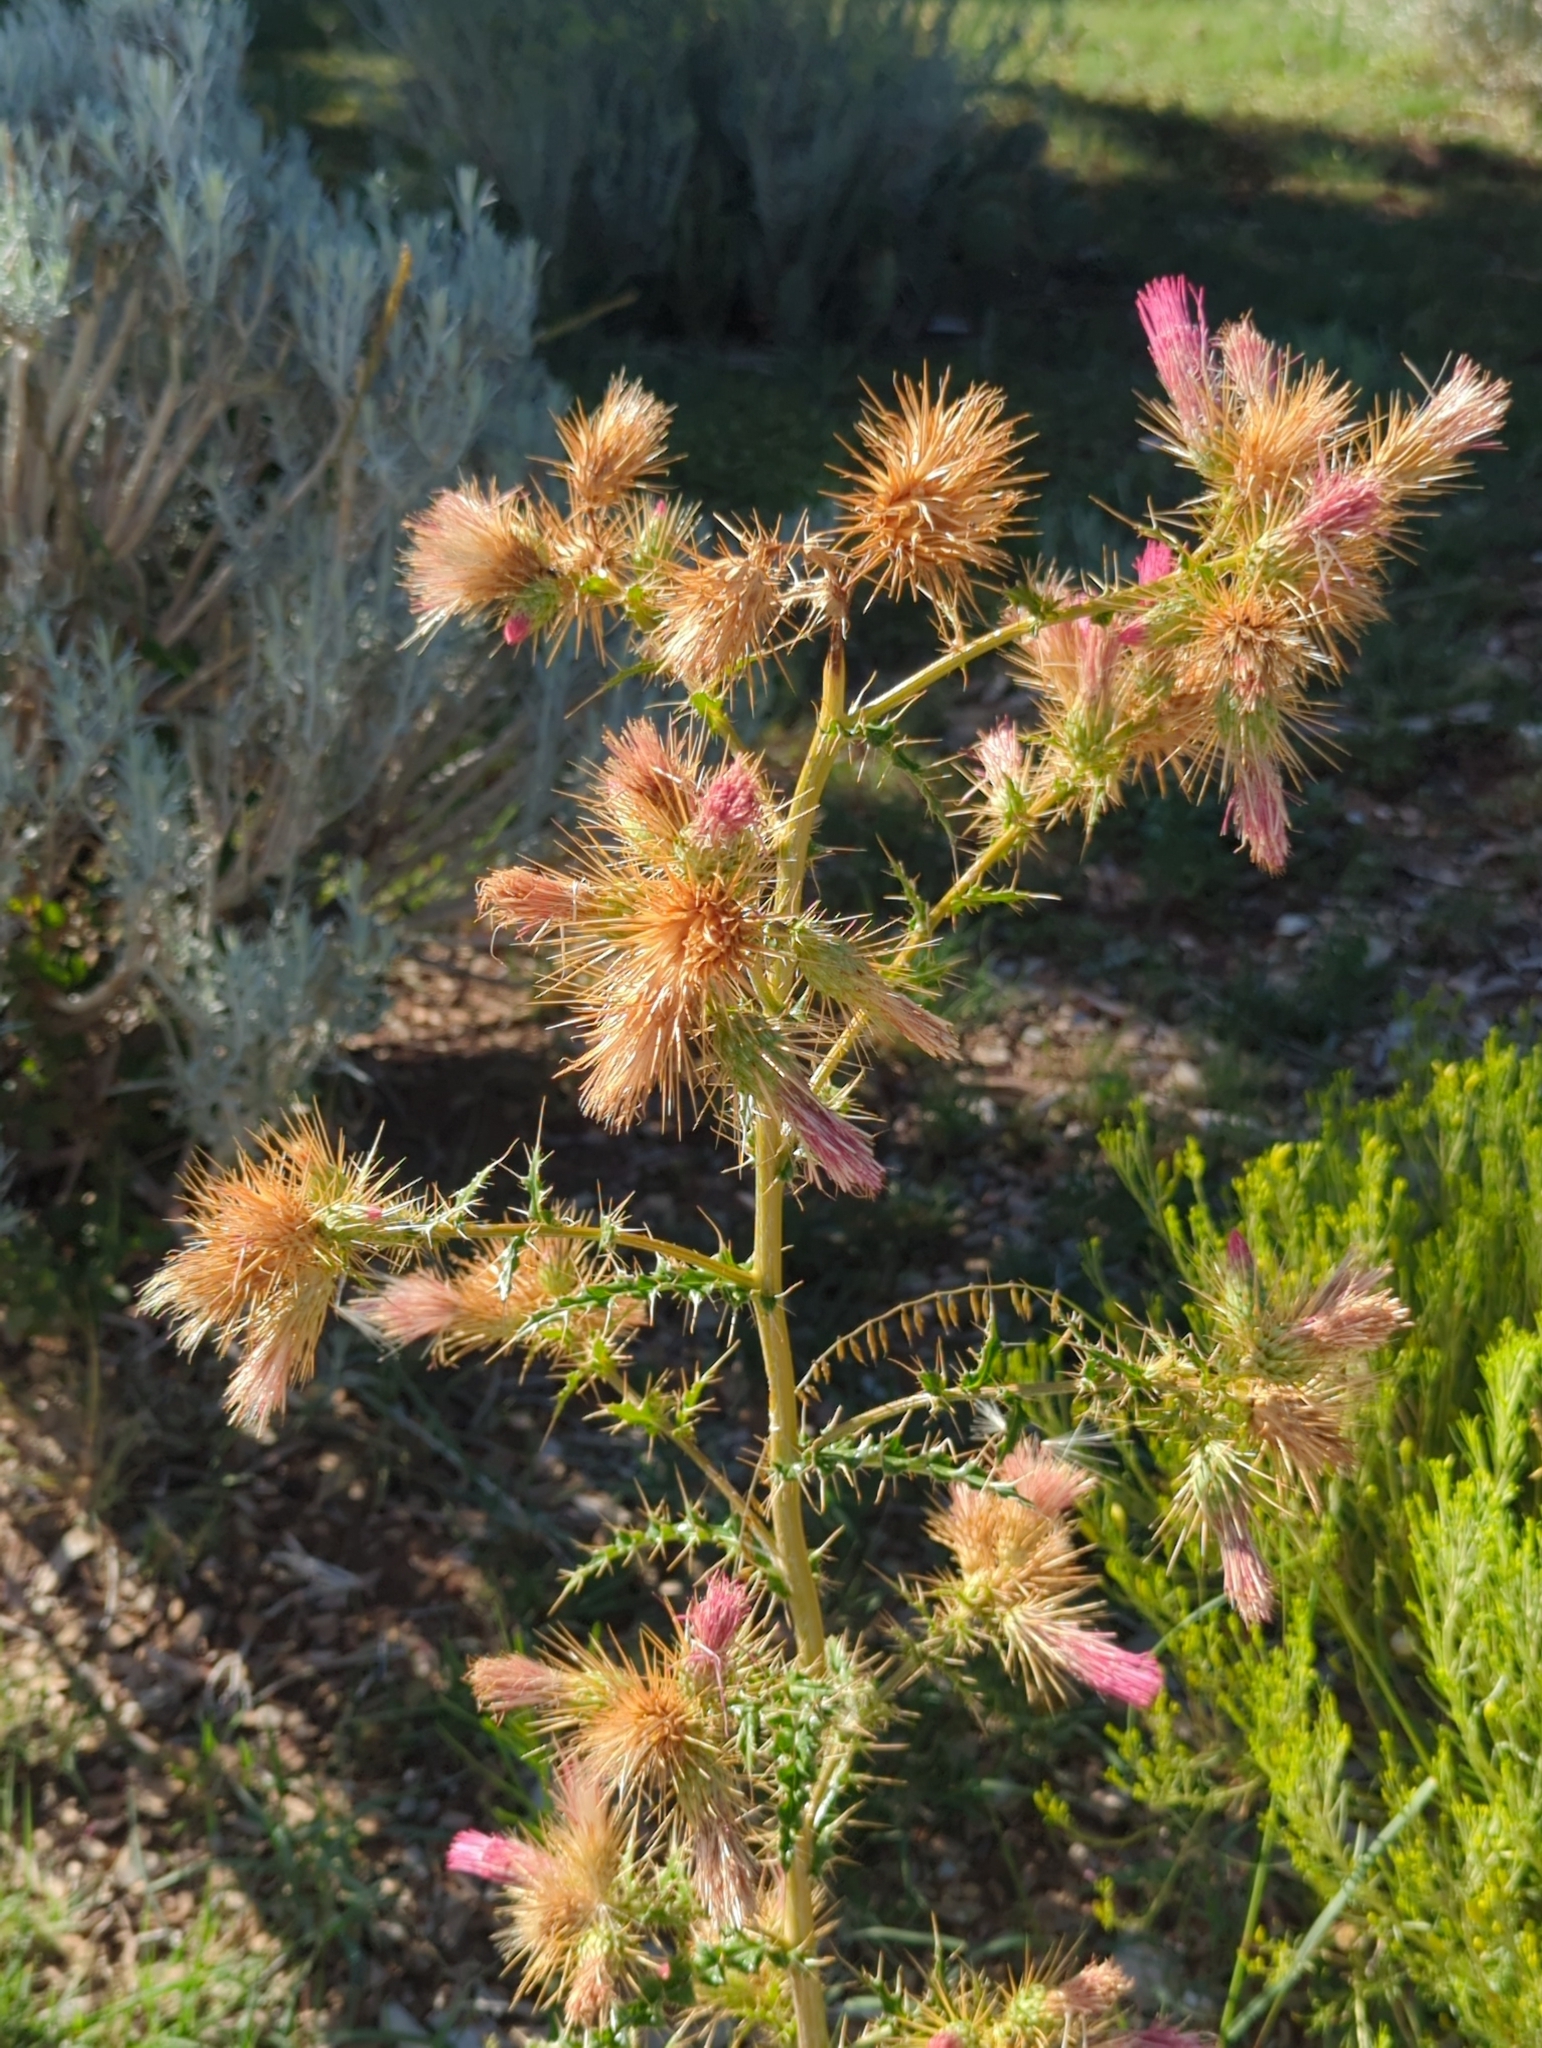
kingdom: Plantae
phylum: Tracheophyta
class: Magnoliopsida
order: Asterales
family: Asteraceae
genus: Cirsium
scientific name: Cirsium arizonicum
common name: Arizona thistle
